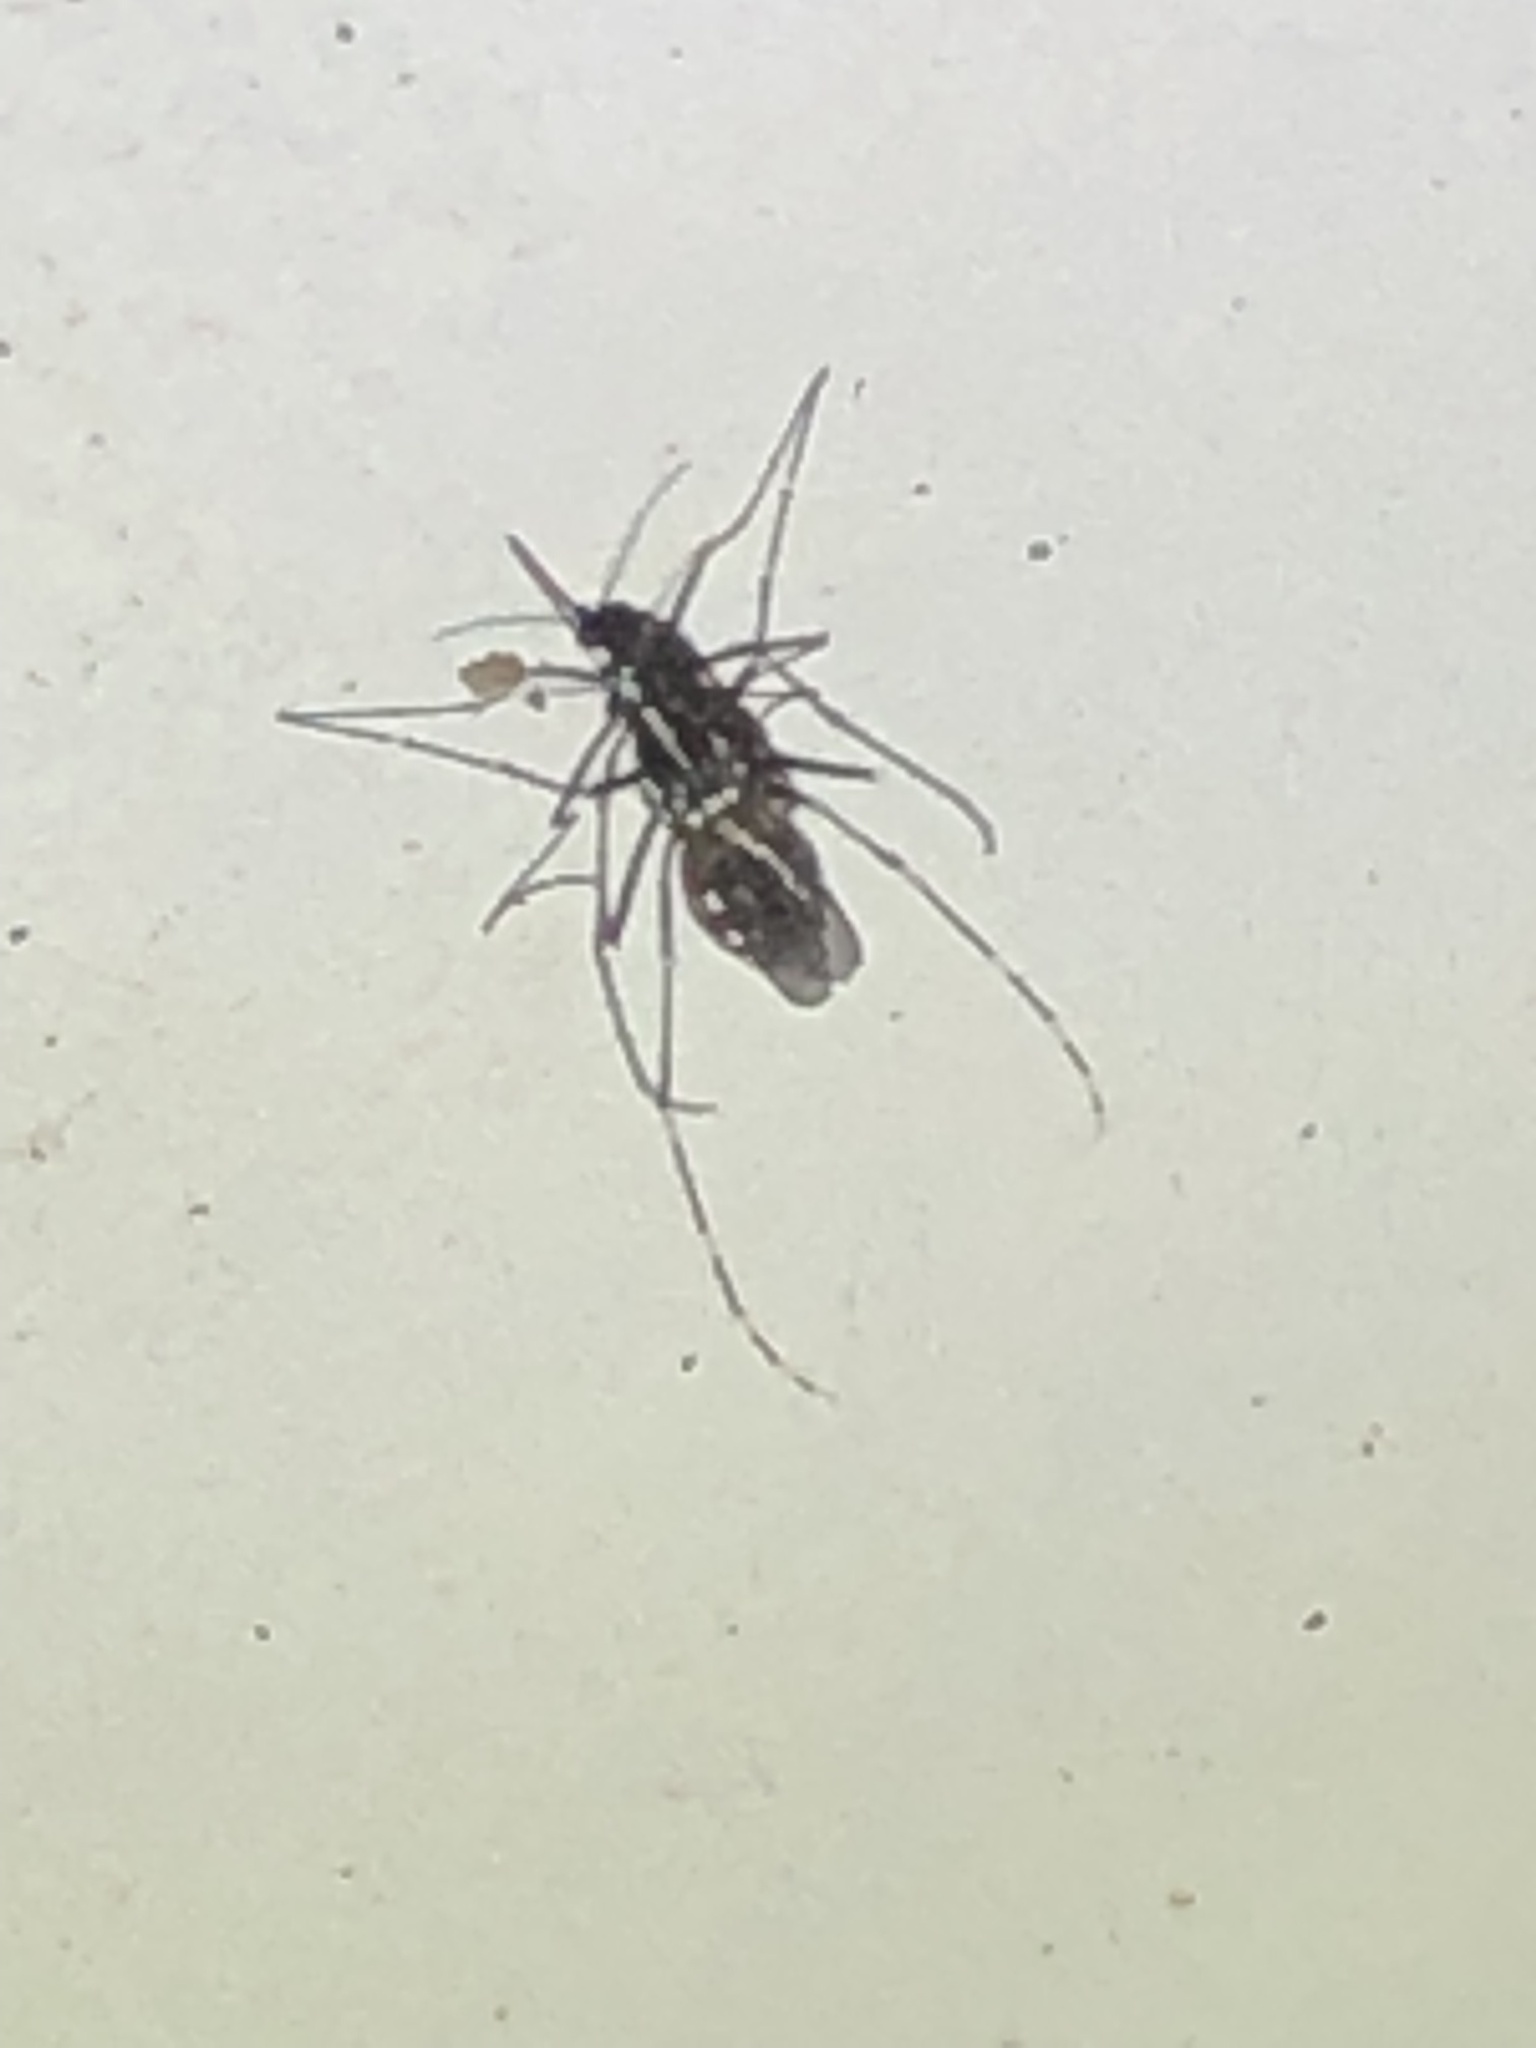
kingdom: Animalia
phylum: Arthropoda
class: Insecta
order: Diptera
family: Culicidae
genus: Aedes
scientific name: Aedes albopictus
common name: Tiger mosquito
